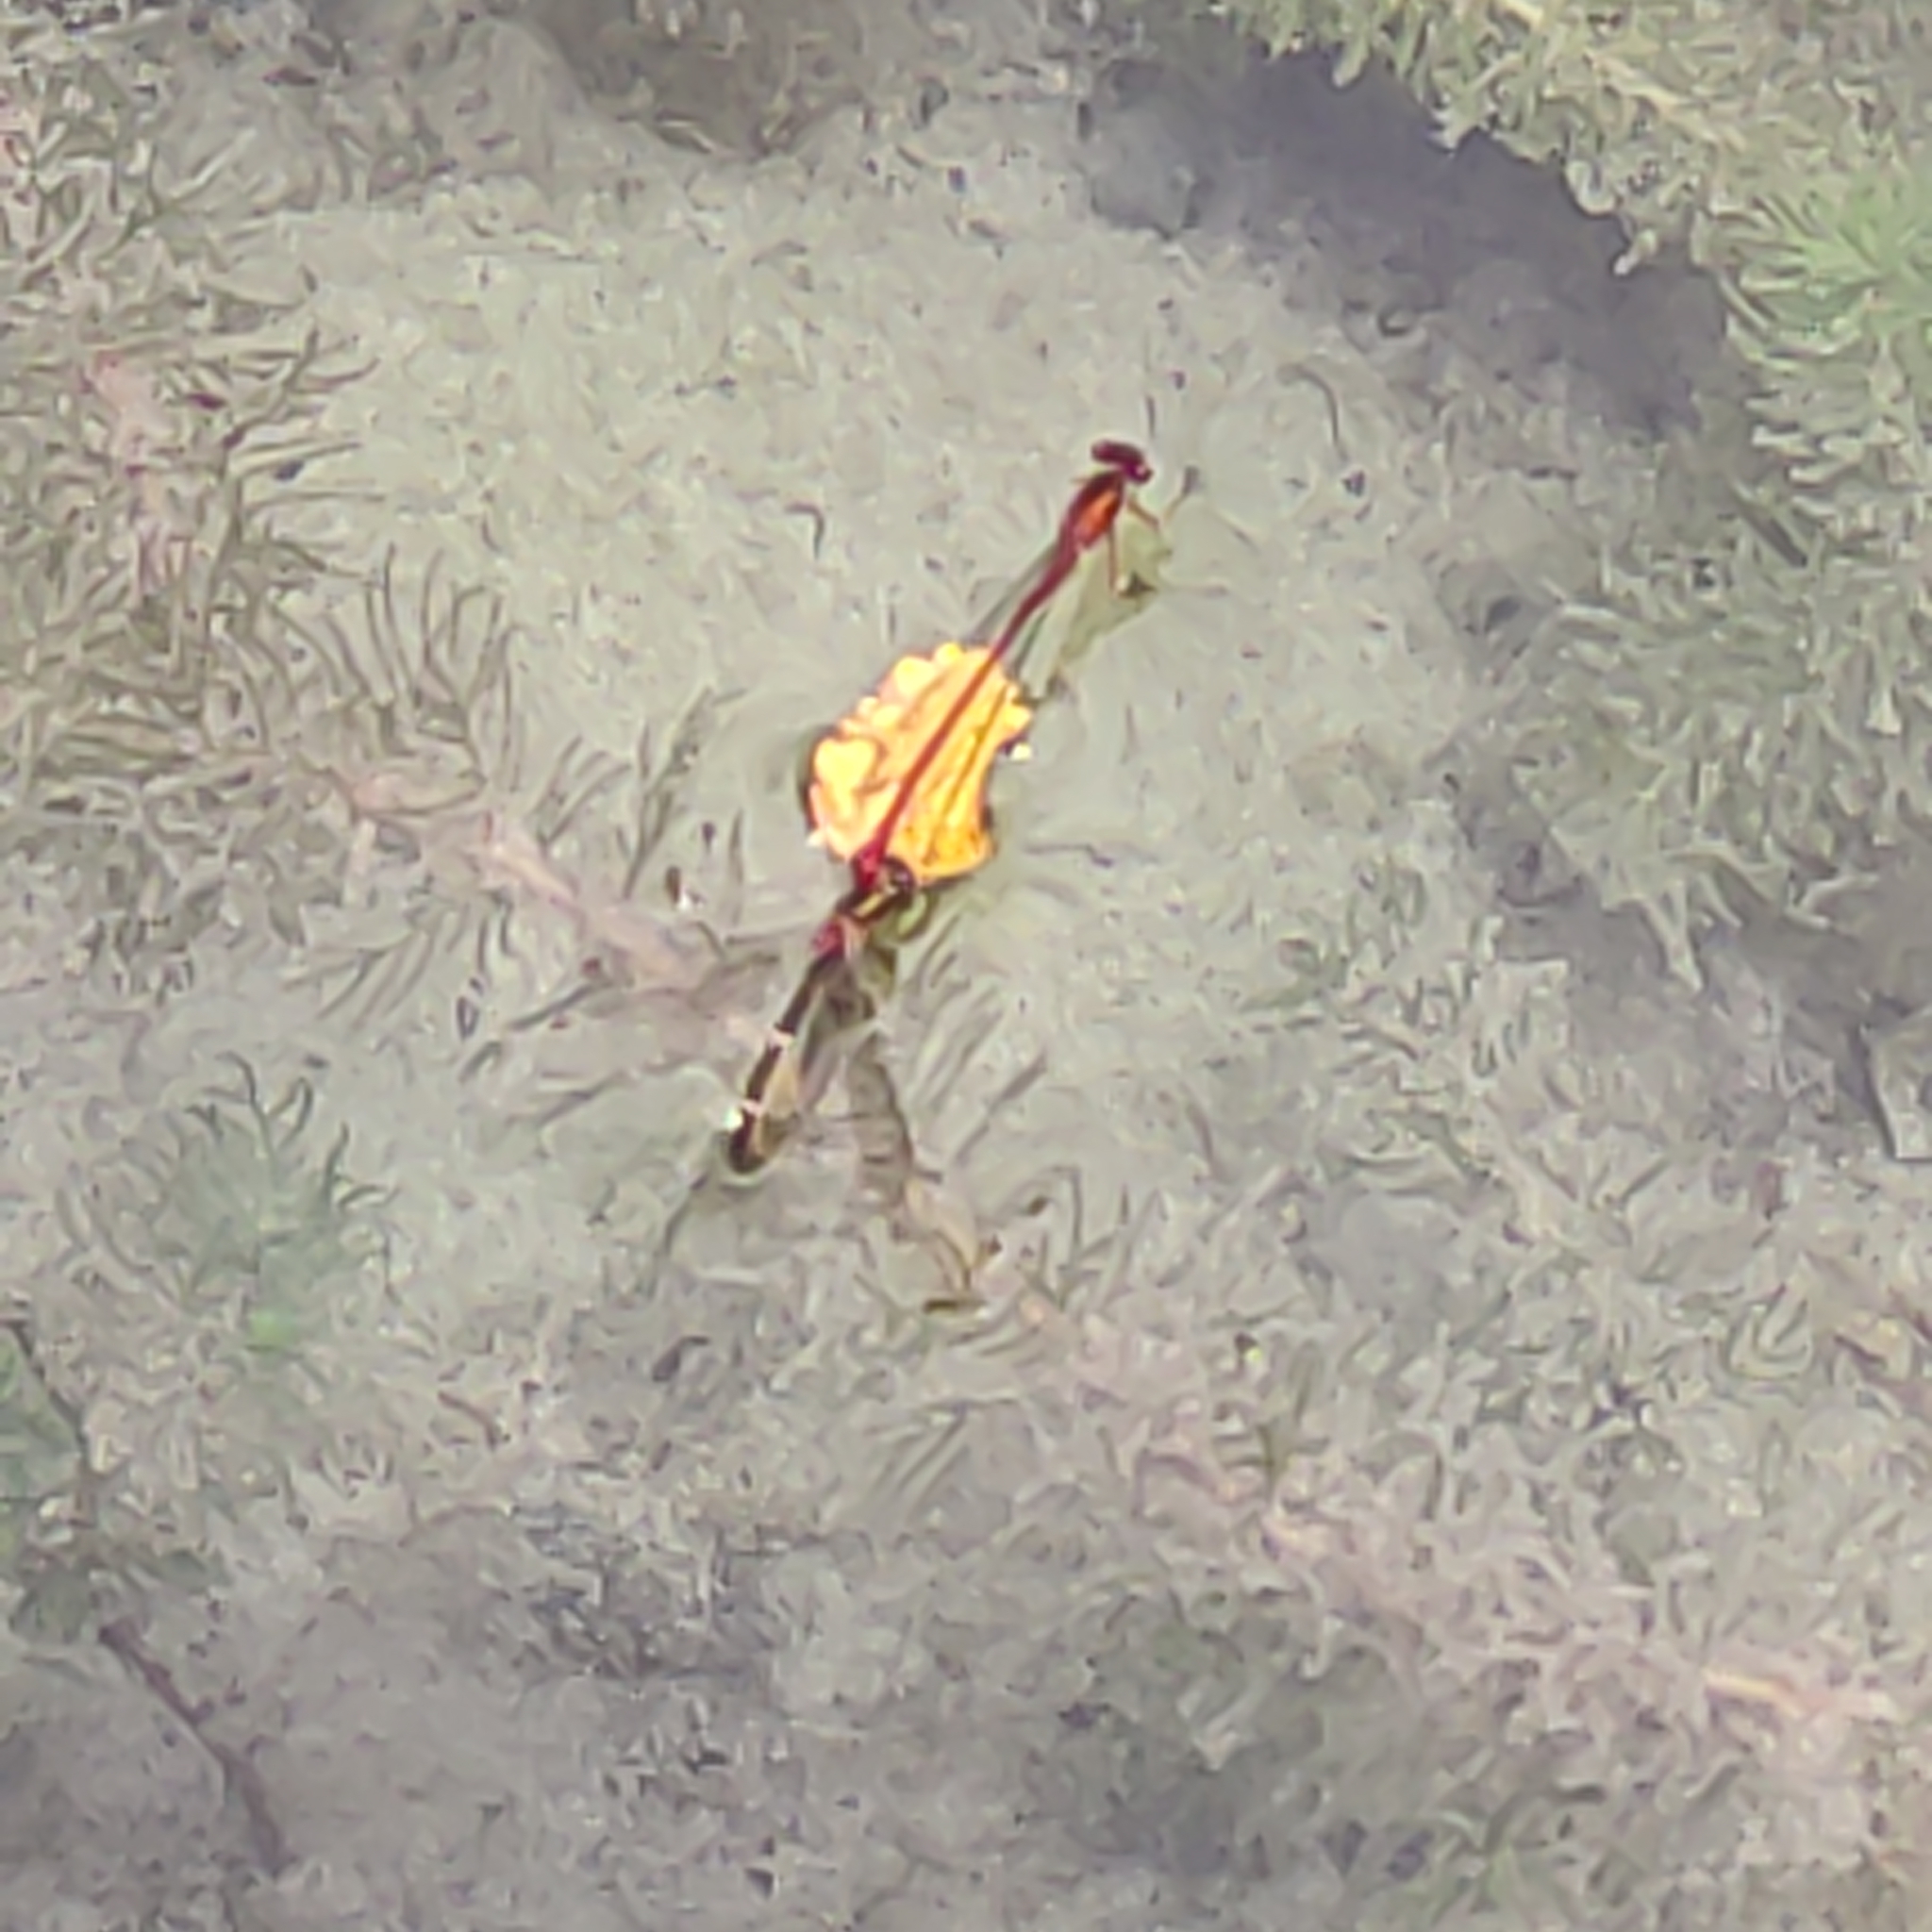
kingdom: Animalia
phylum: Arthropoda
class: Insecta
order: Odonata
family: Coenagrionidae
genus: Xanthocnemis
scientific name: Xanthocnemis zealandica
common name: Common redcoat damselfly
